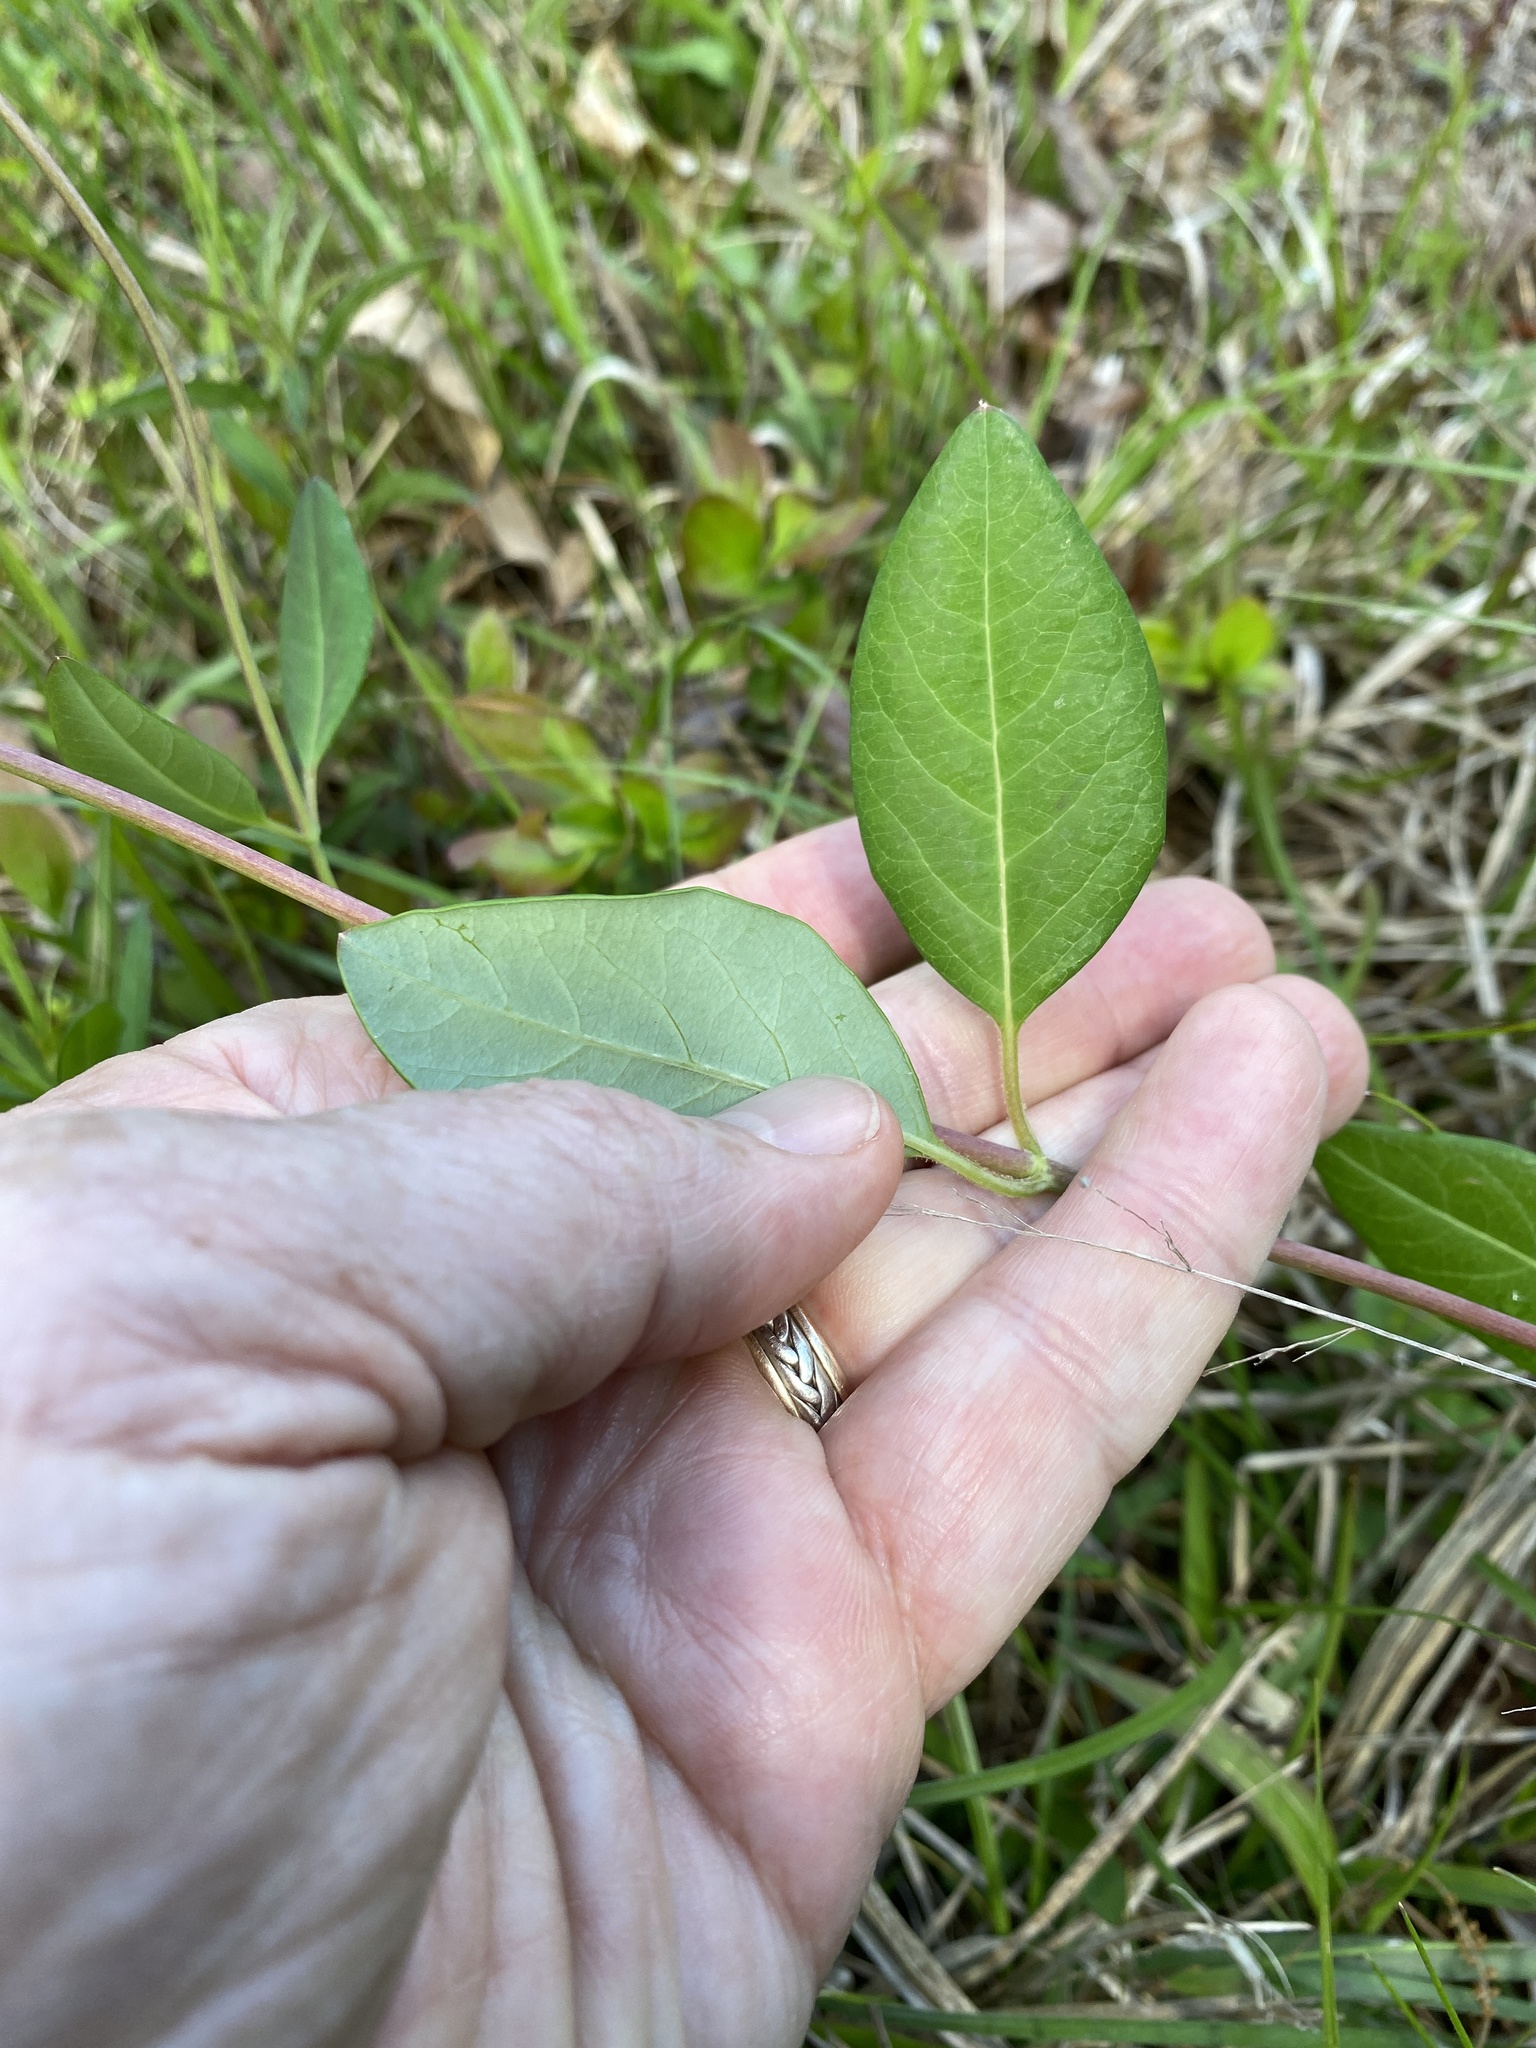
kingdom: Plantae
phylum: Tracheophyta
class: Magnoliopsida
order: Dipsacales
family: Caprifoliaceae
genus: Lonicera
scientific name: Lonicera sempervirens
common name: Coral honeysuckle
